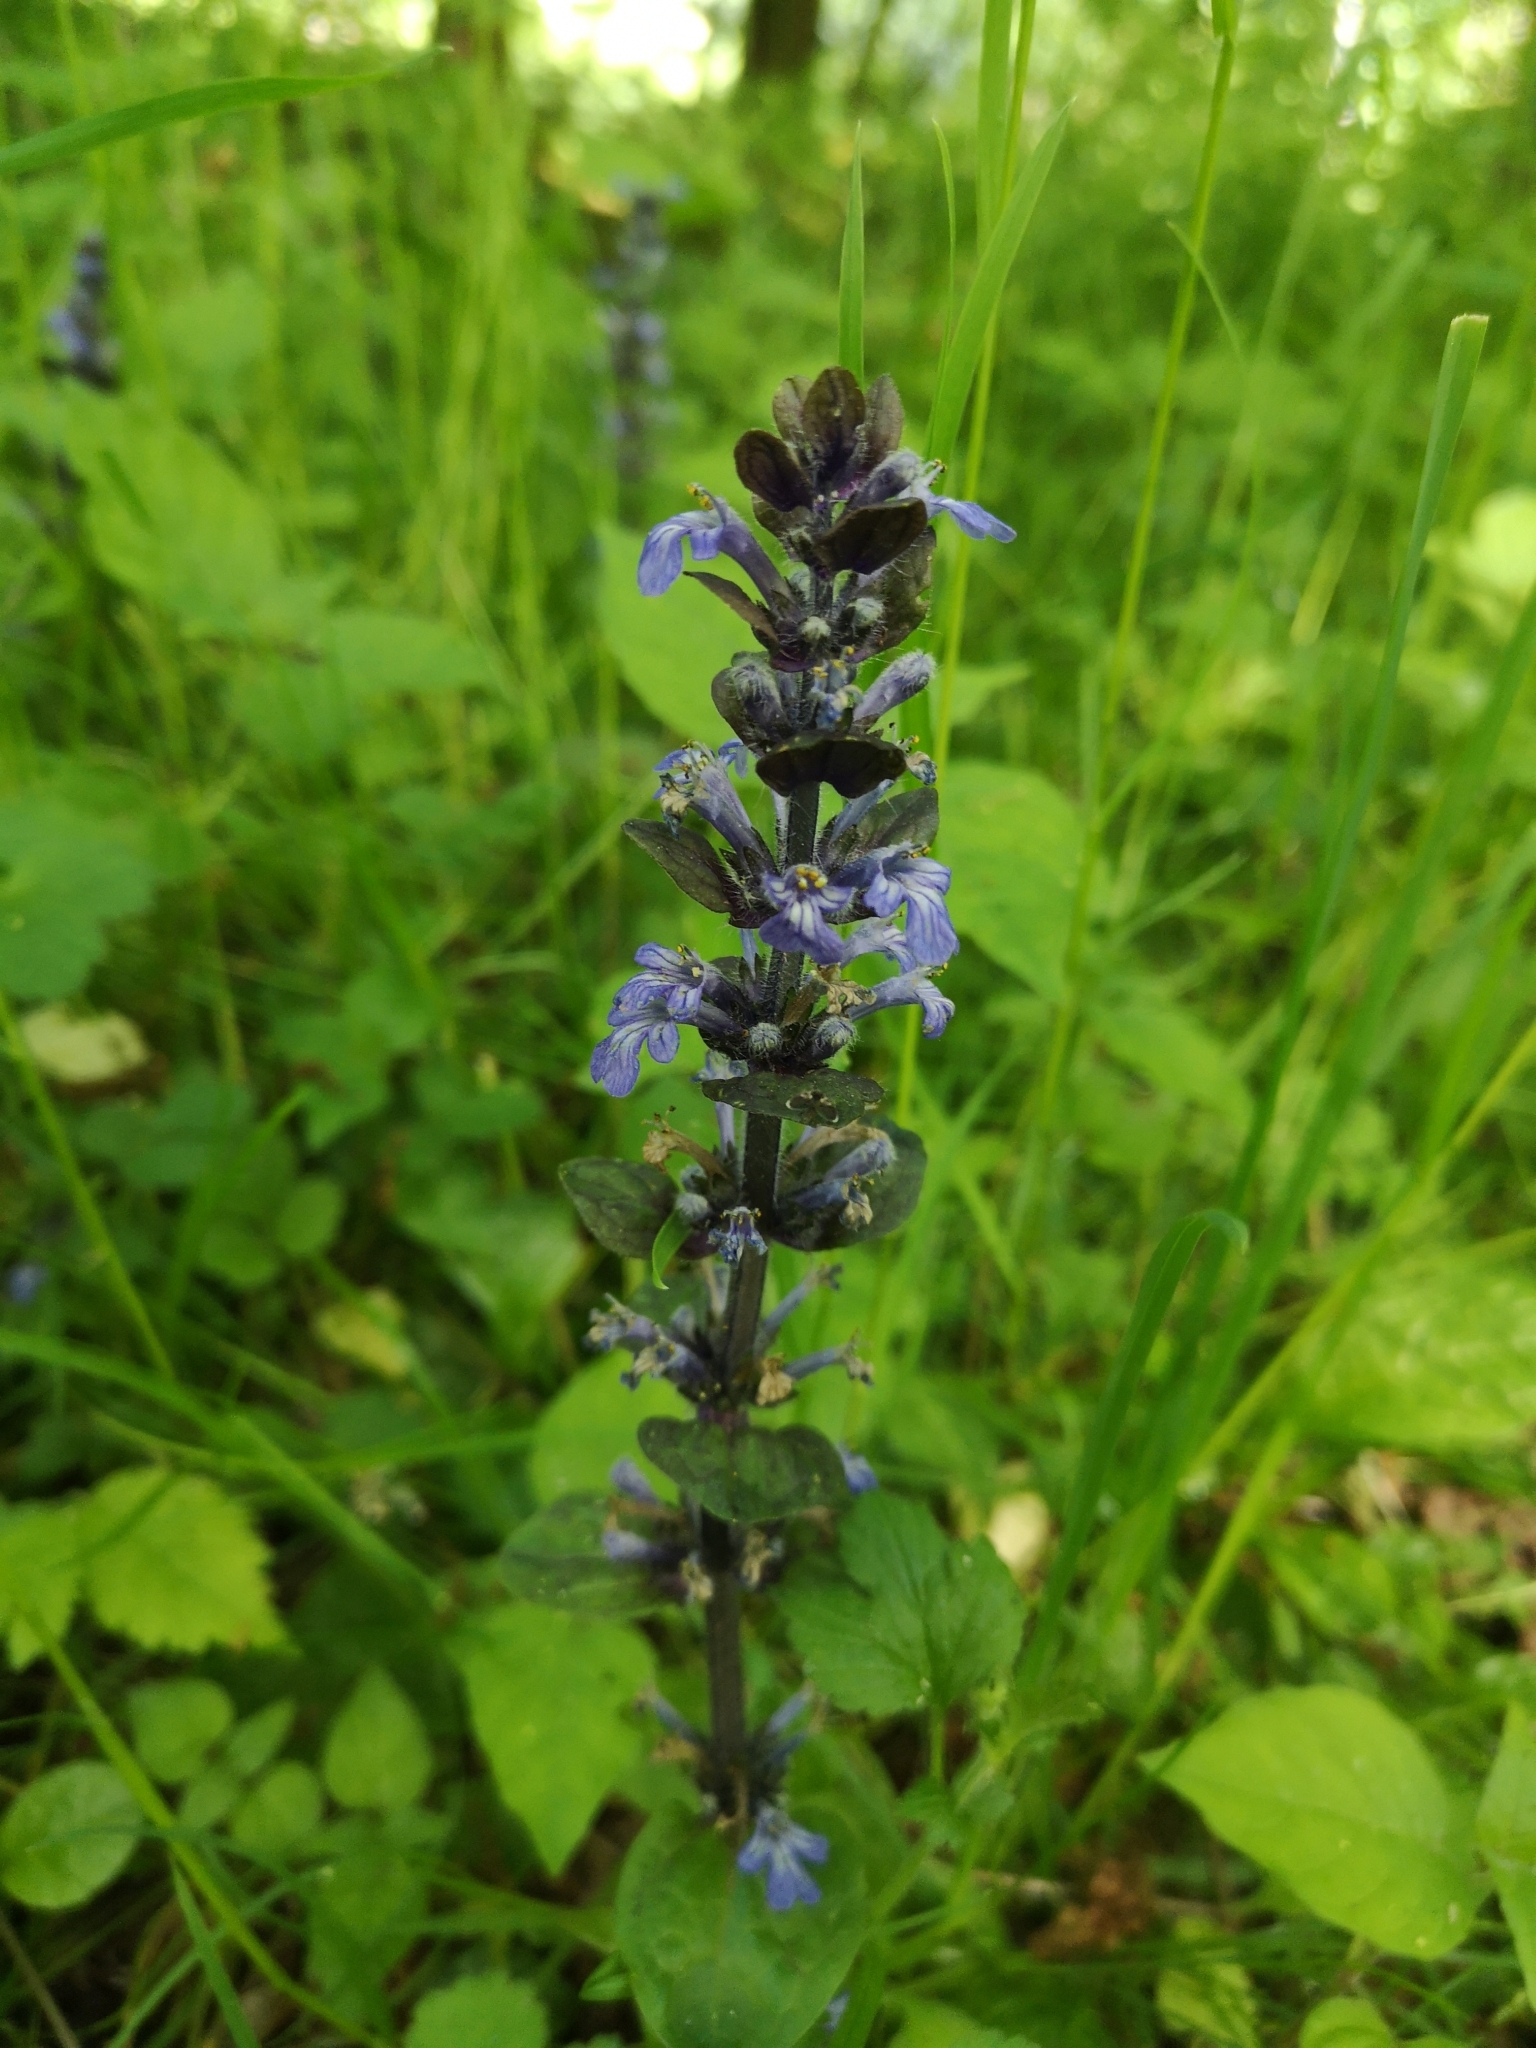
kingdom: Plantae
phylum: Tracheophyta
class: Magnoliopsida
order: Lamiales
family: Lamiaceae
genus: Ajuga
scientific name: Ajuga reptans
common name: Bugle
